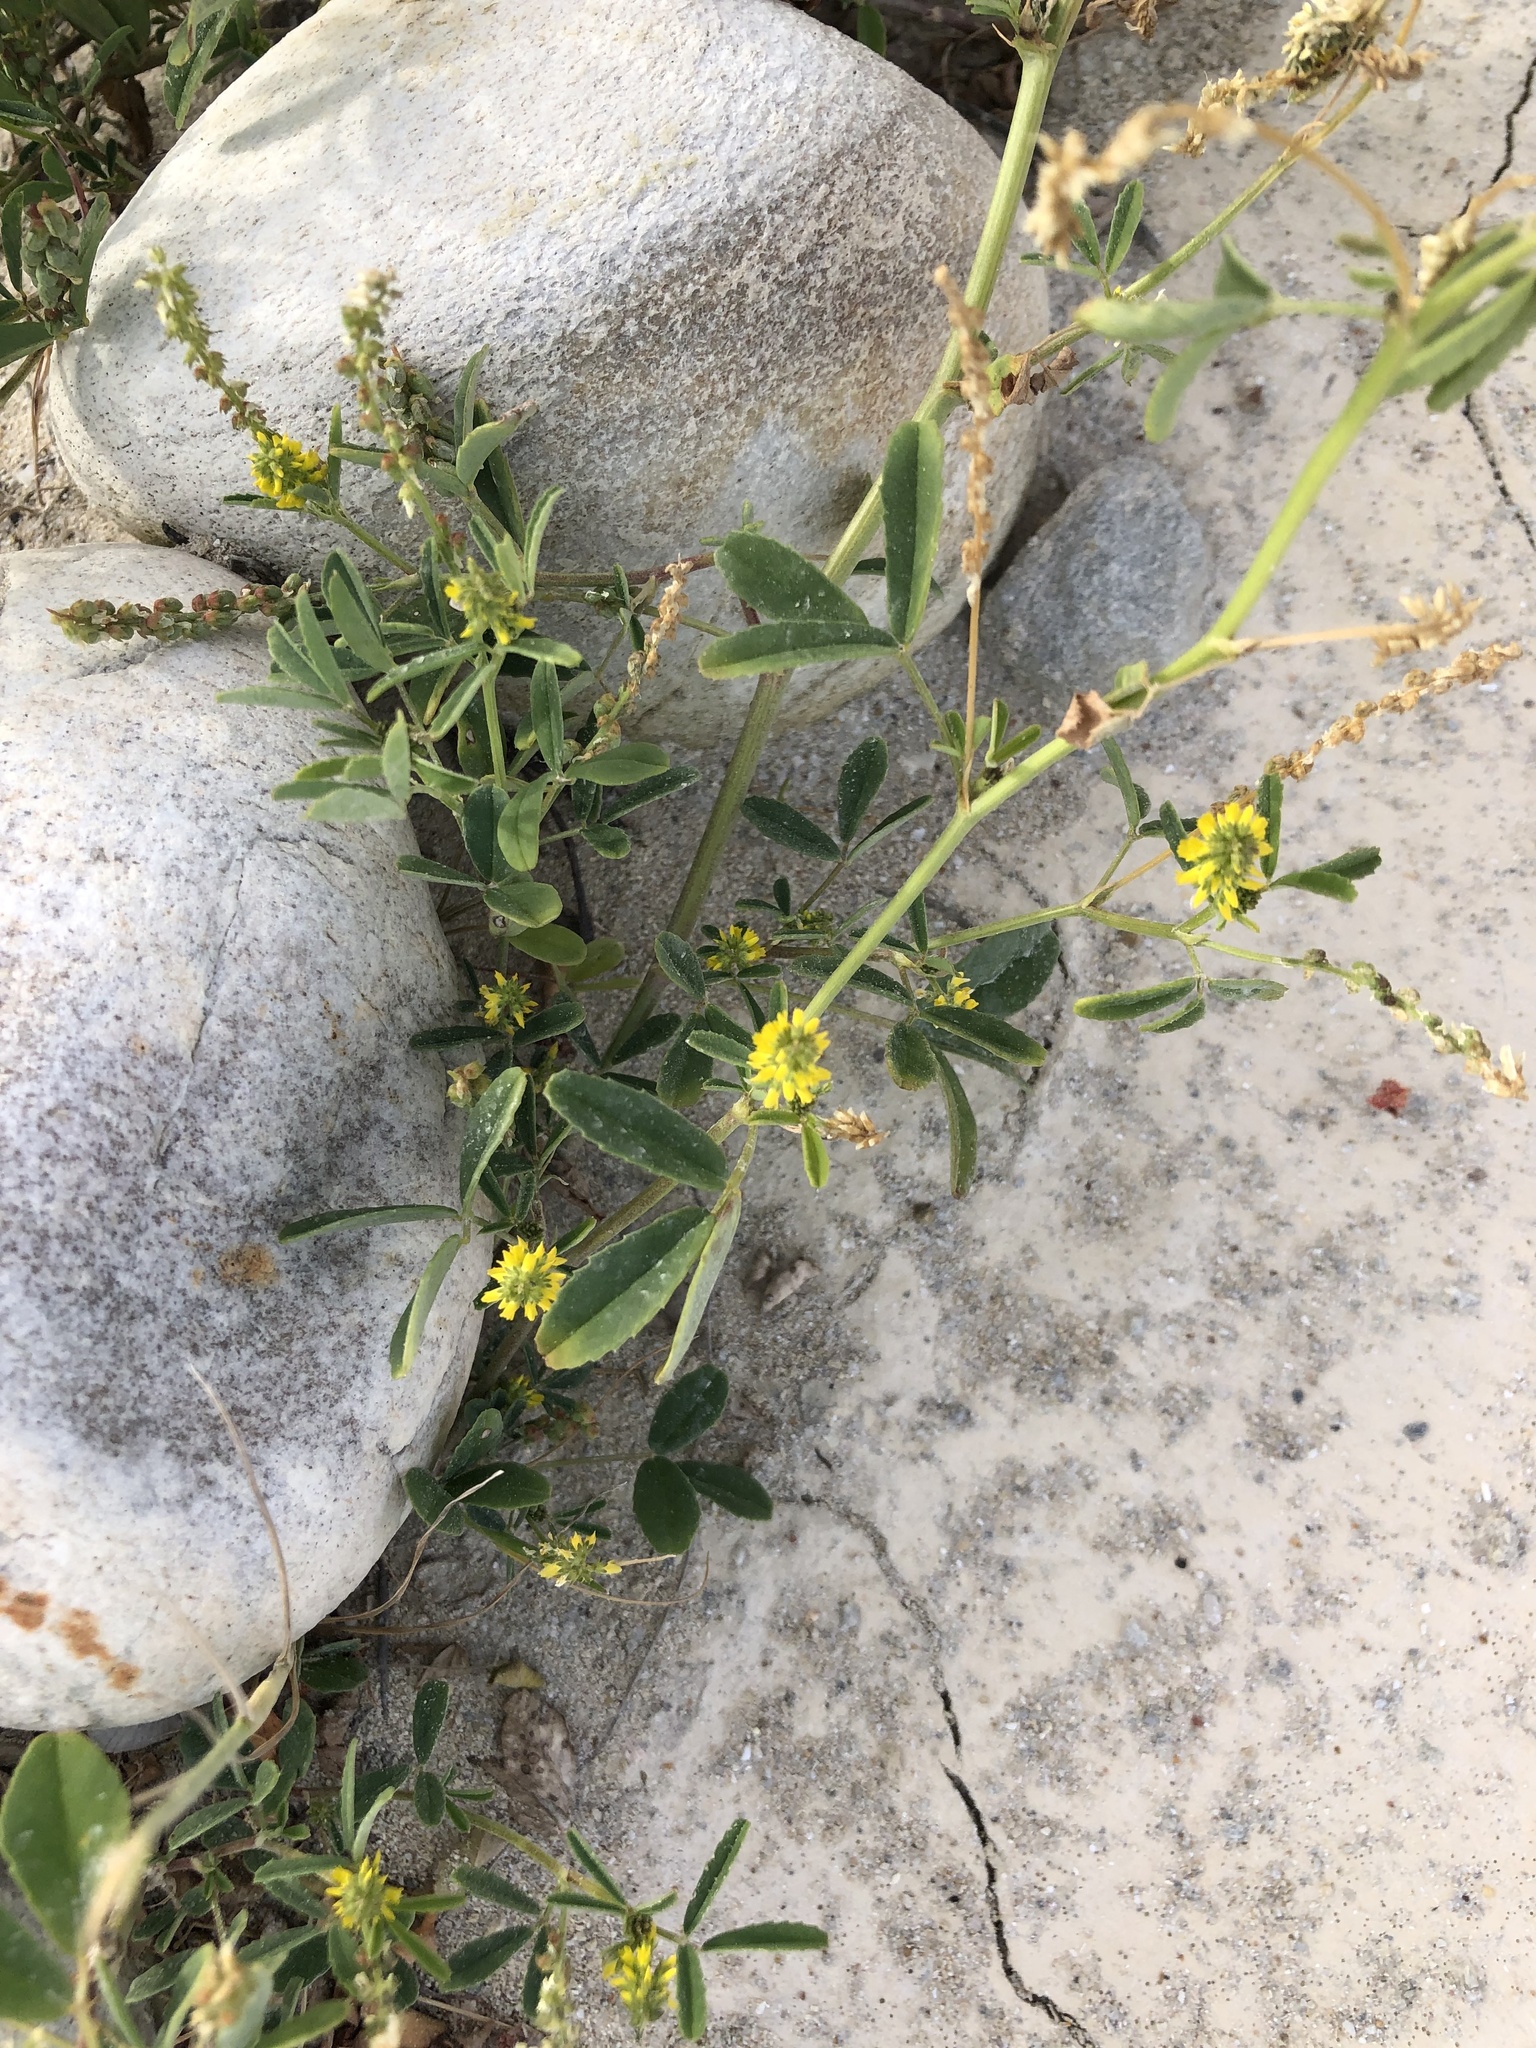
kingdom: Plantae
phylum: Tracheophyta
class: Magnoliopsida
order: Fabales
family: Fabaceae
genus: Melilotus
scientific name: Melilotus indicus
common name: Small melilot
